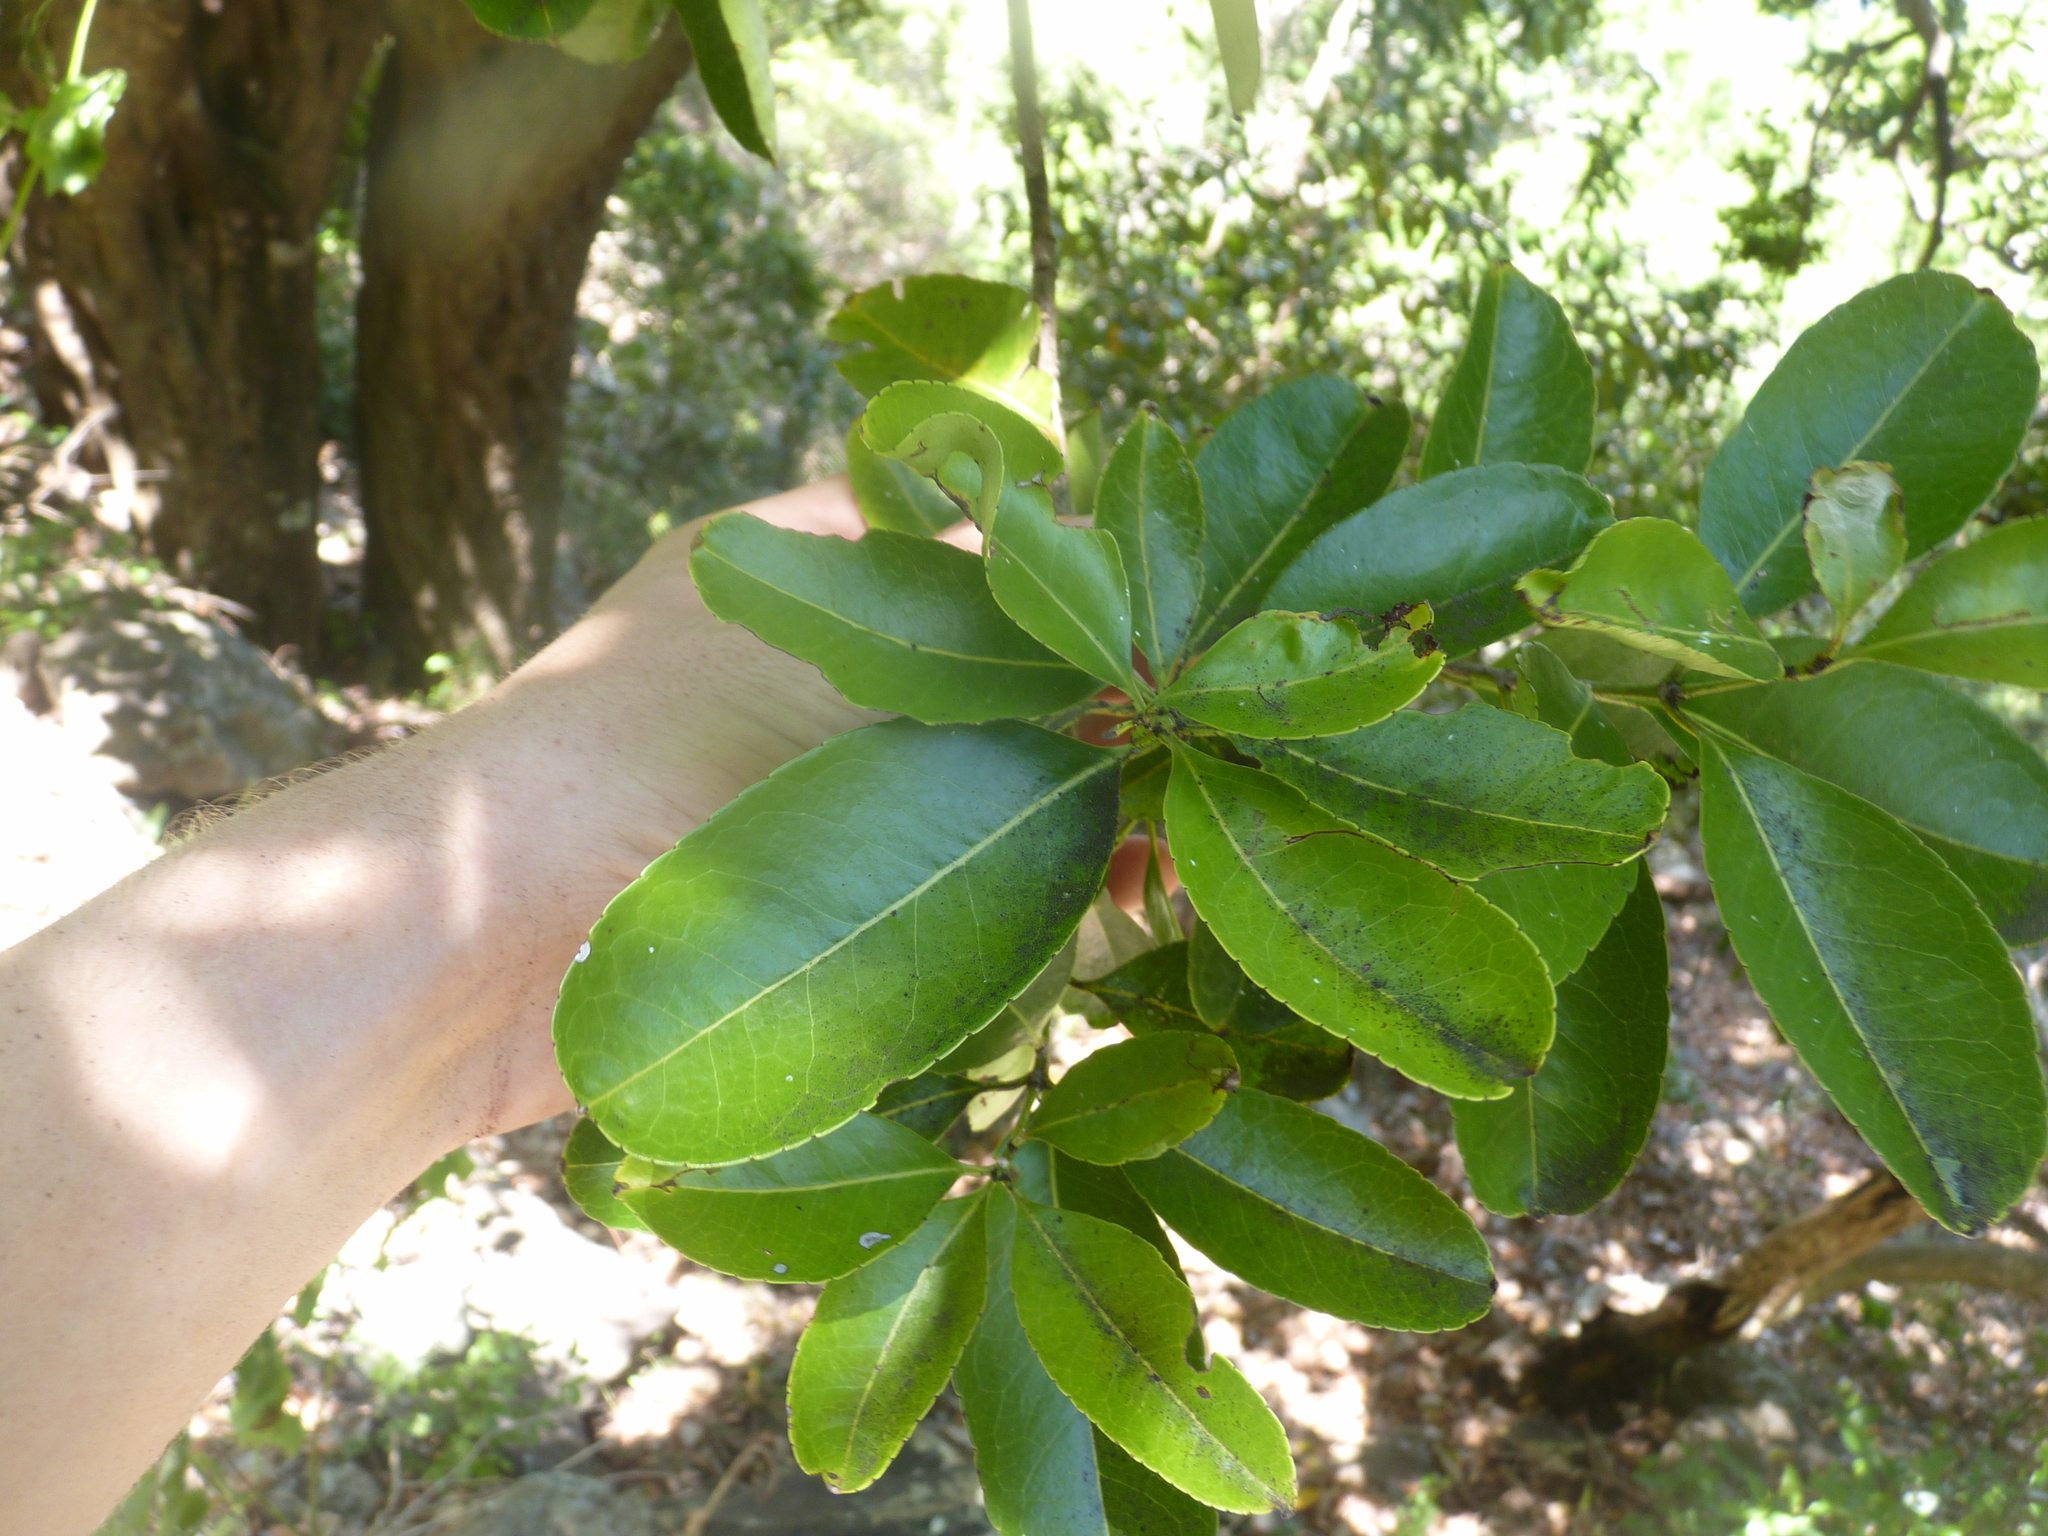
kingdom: Plantae
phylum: Tracheophyta
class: Magnoliopsida
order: Celastrales
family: Celastraceae
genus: Elaeodendron
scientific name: Elaeodendron orientale
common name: False olive
